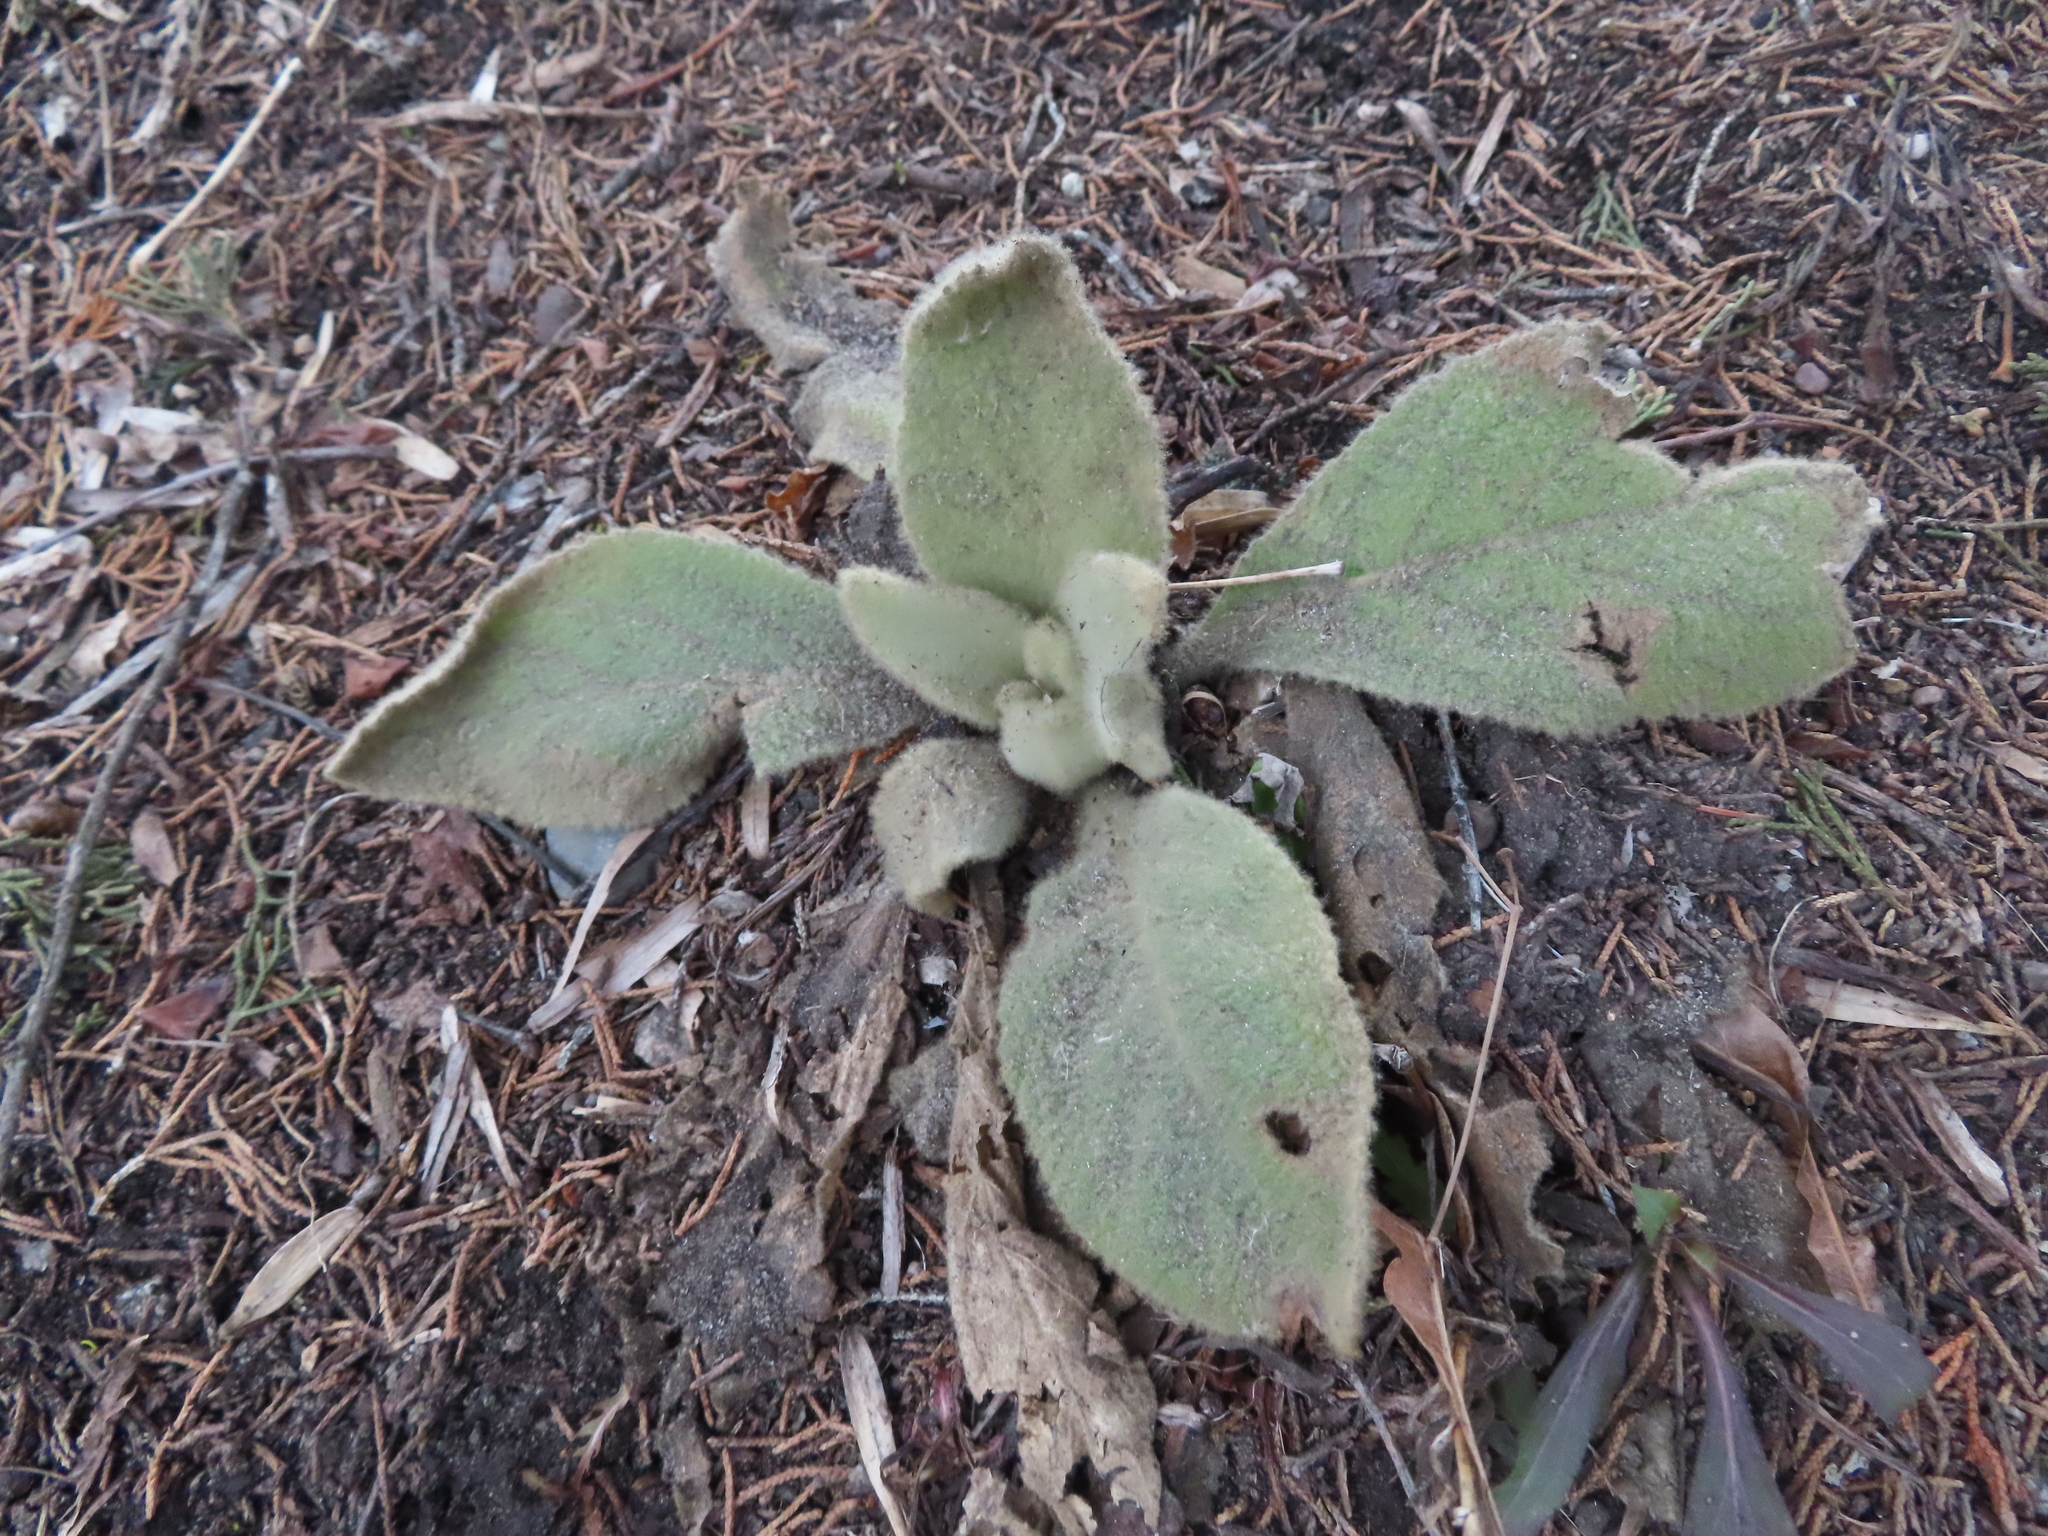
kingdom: Plantae
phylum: Tracheophyta
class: Magnoliopsida
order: Lamiales
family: Scrophulariaceae
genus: Verbascum
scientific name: Verbascum thapsus
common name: Common mullein
